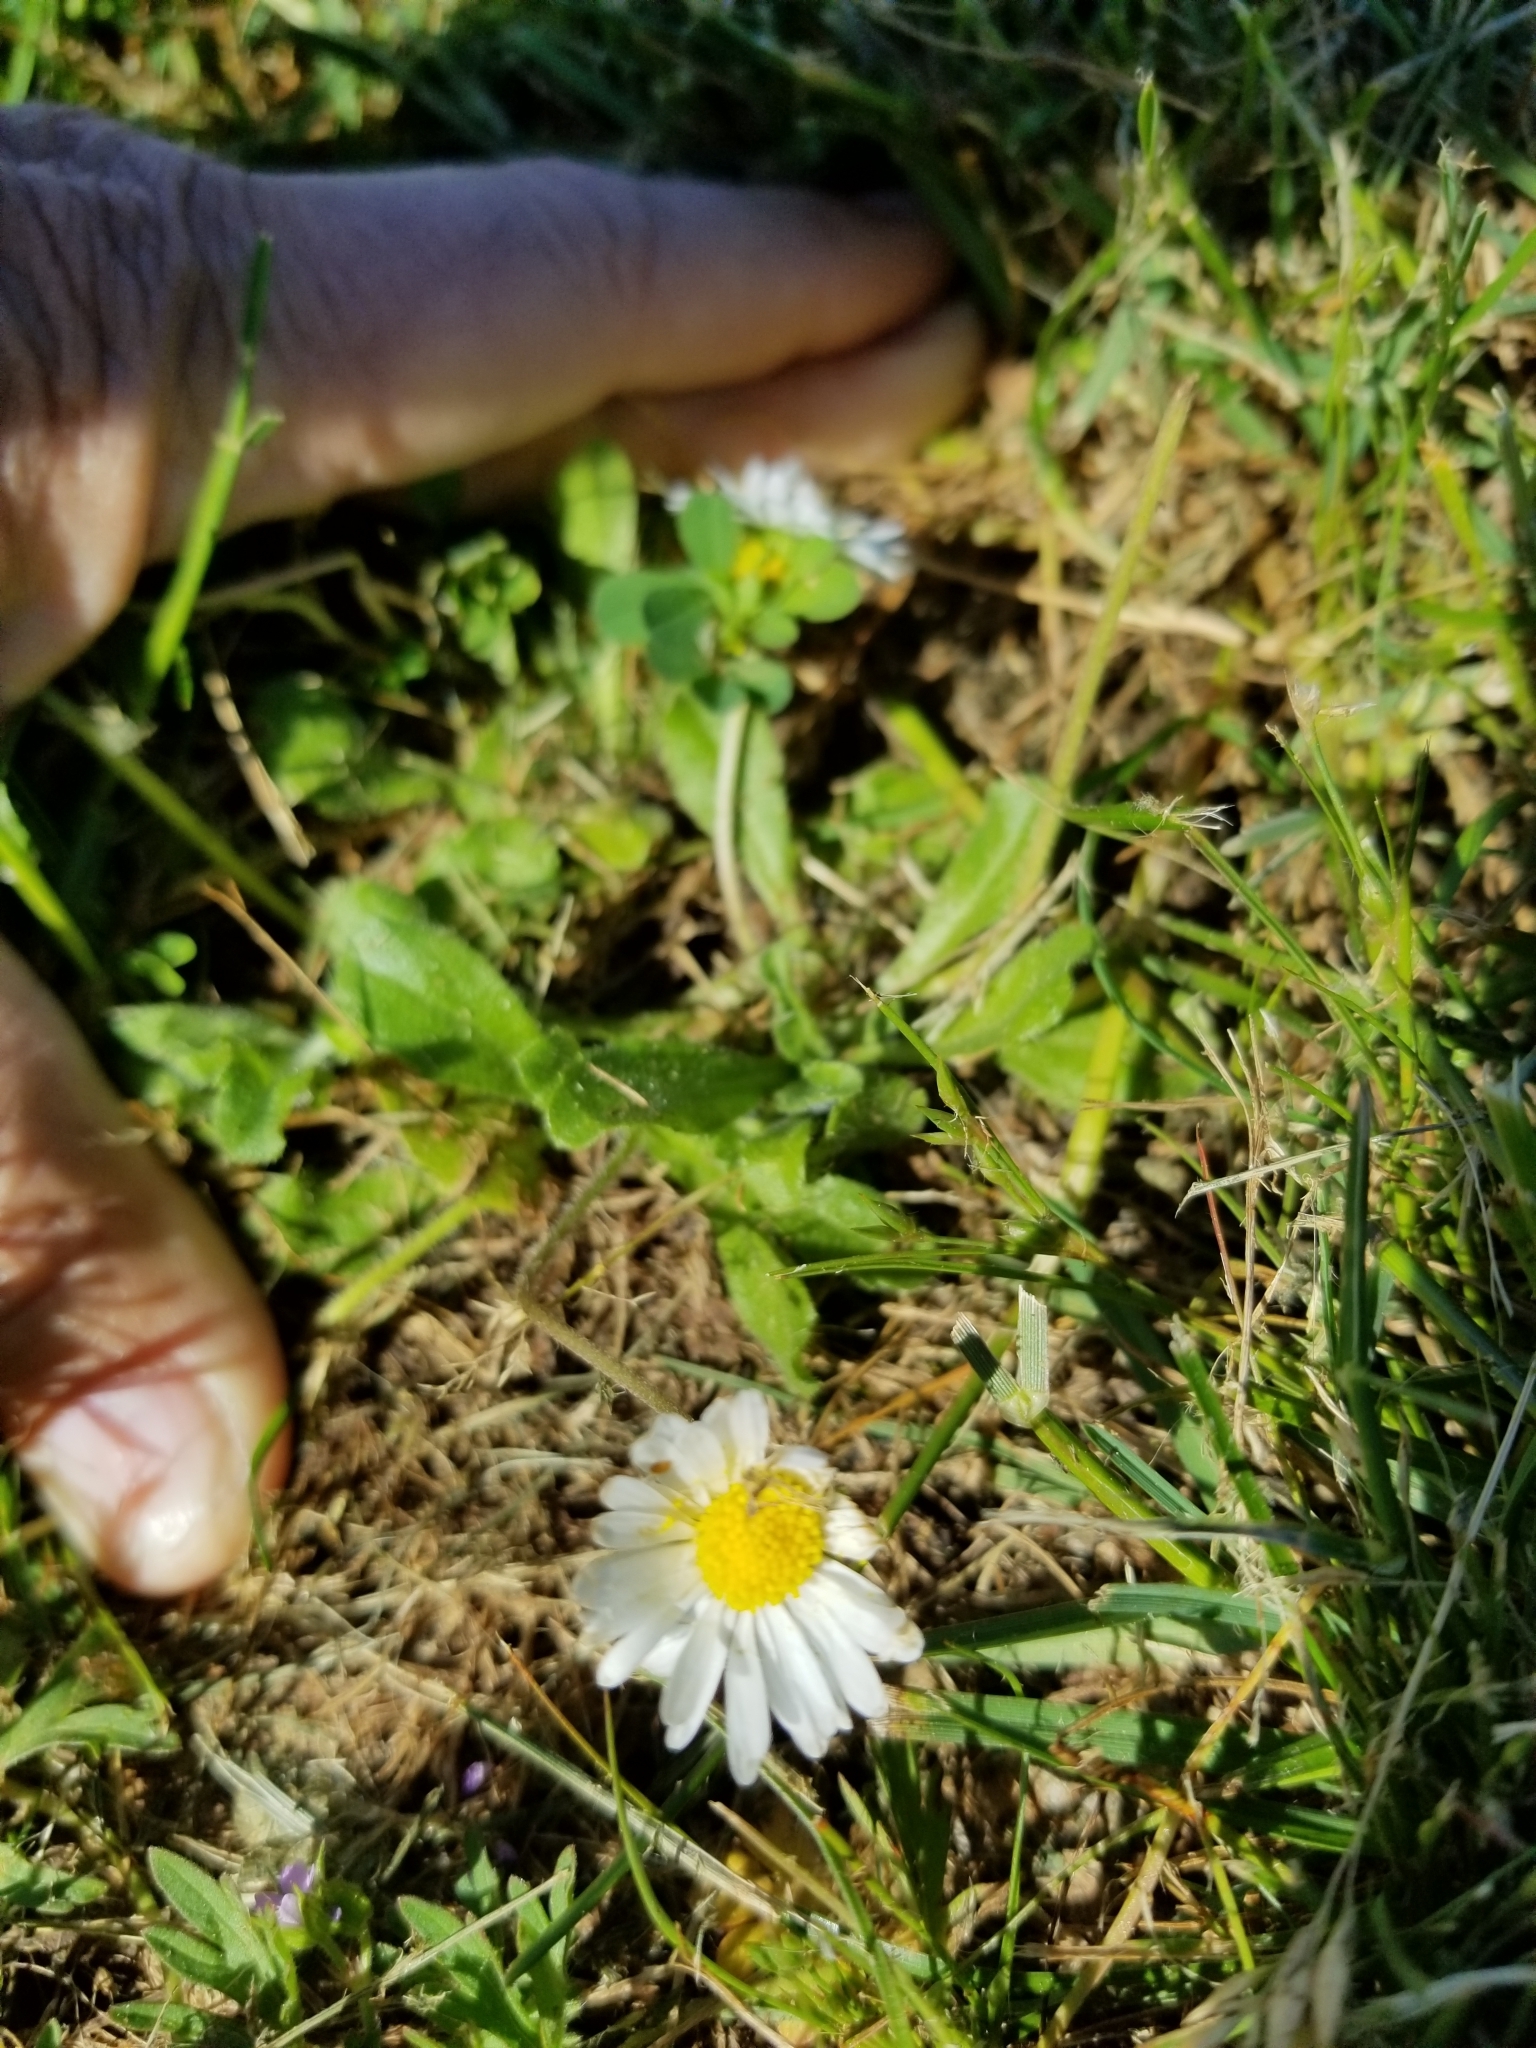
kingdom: Plantae
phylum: Tracheophyta
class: Magnoliopsida
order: Asterales
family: Asteraceae
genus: Bellis
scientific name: Bellis perennis
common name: Lawndaisy
